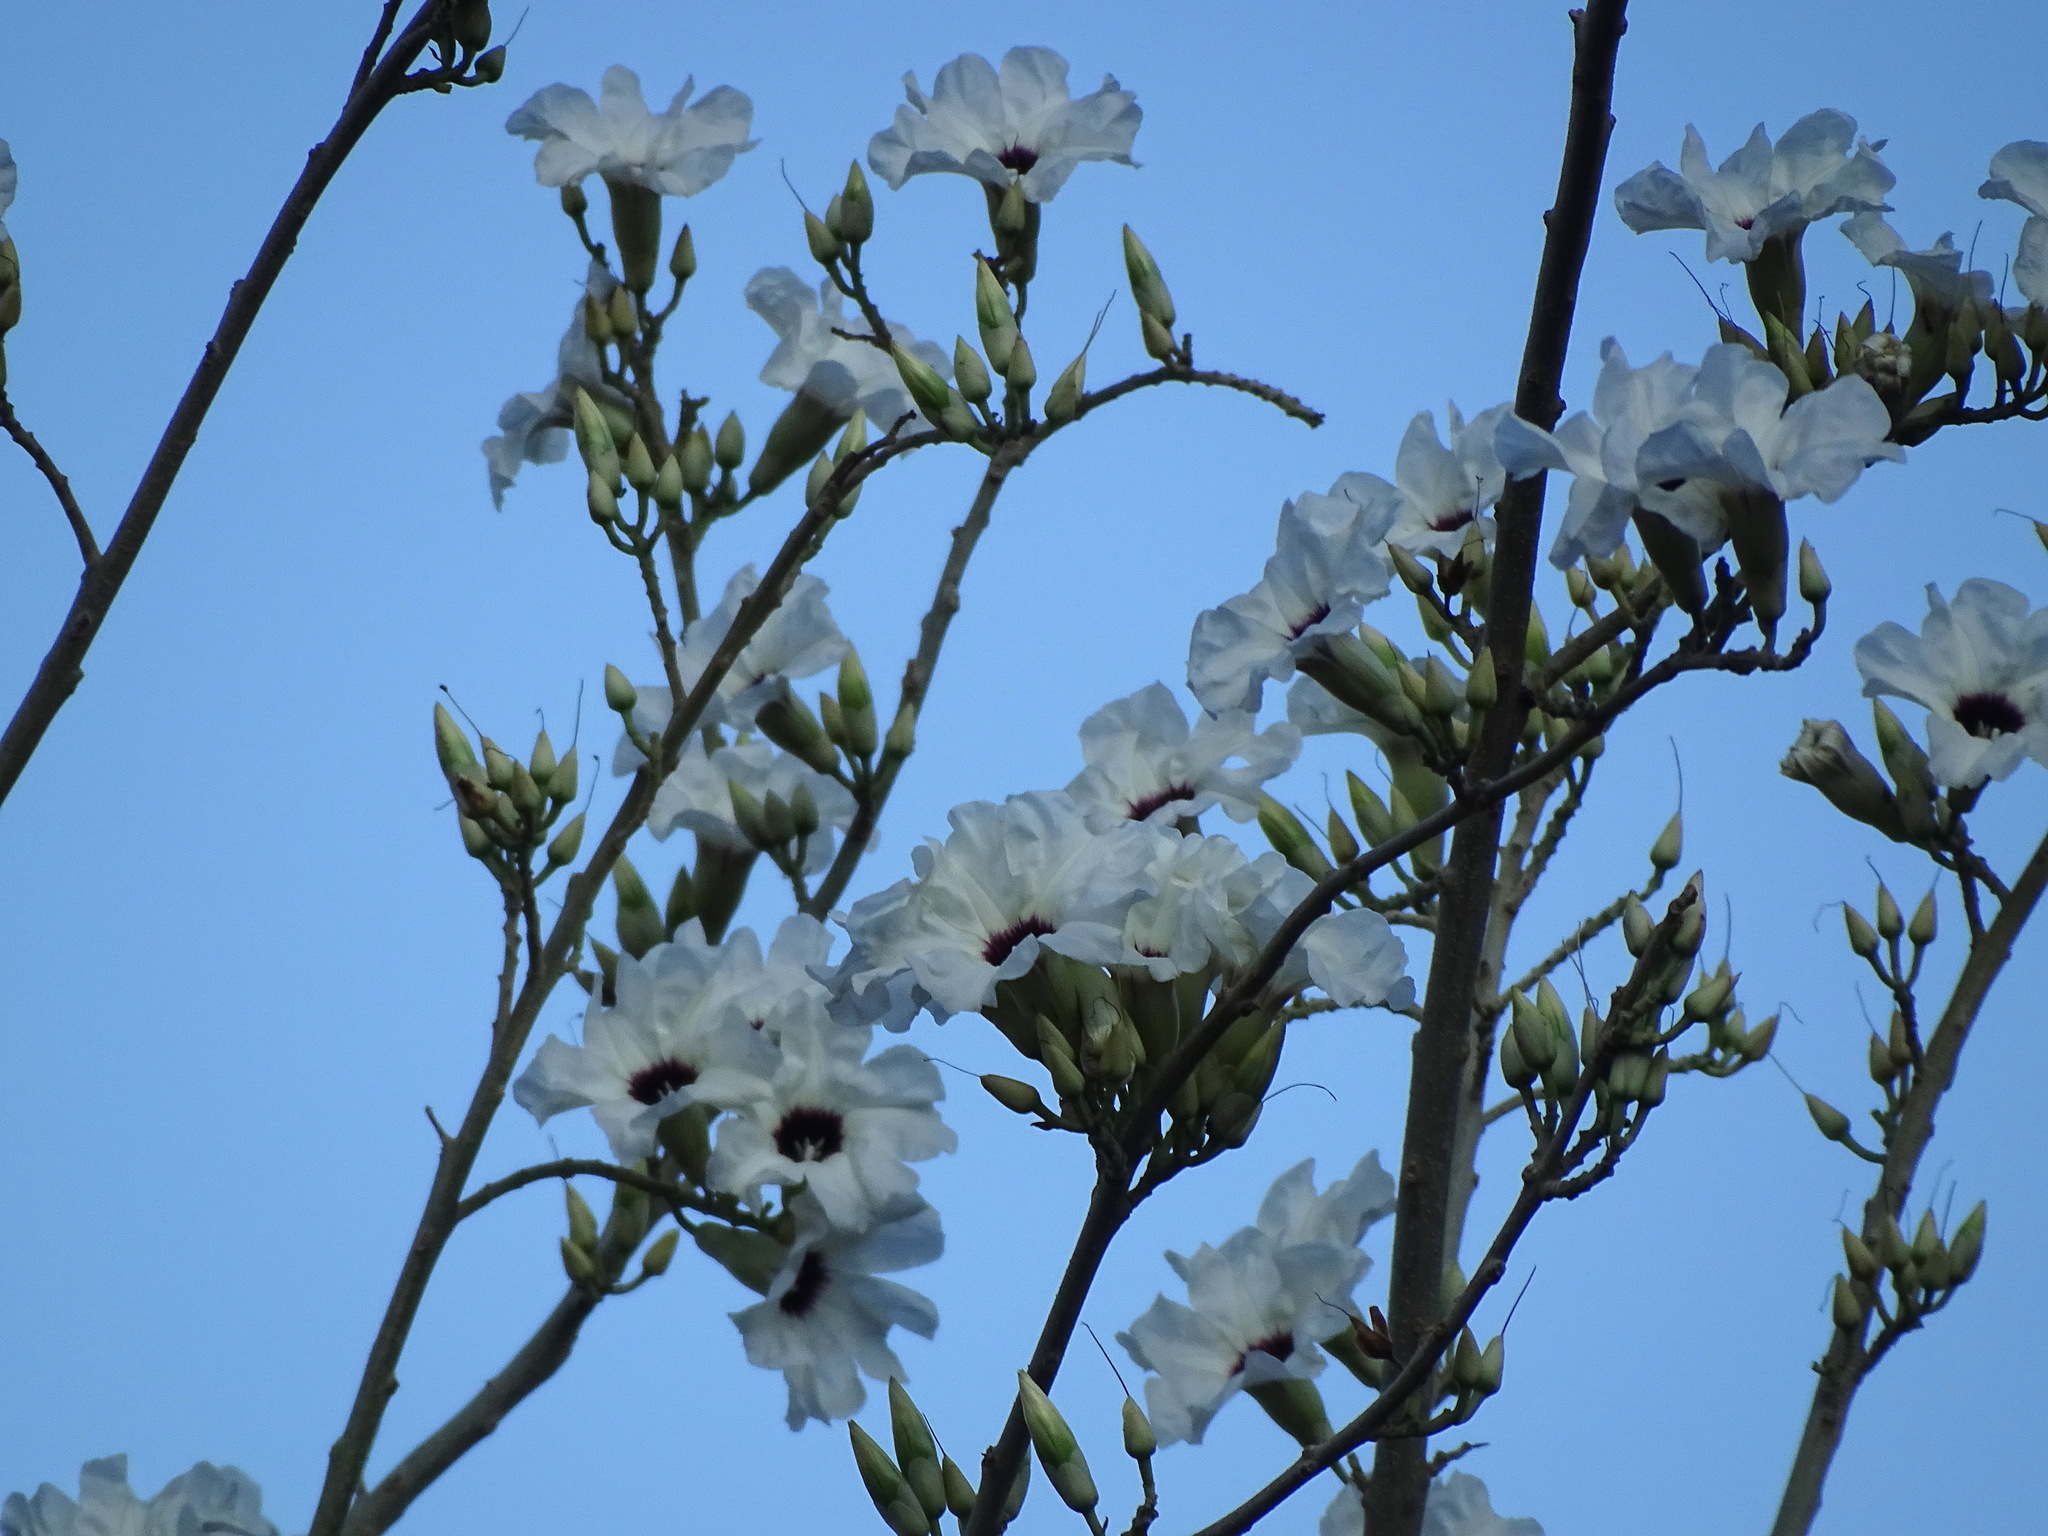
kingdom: Plantae
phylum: Tracheophyta
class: Magnoliopsida
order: Solanales
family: Convolvulaceae
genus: Ipomoea
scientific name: Ipomoea wolcottiana
